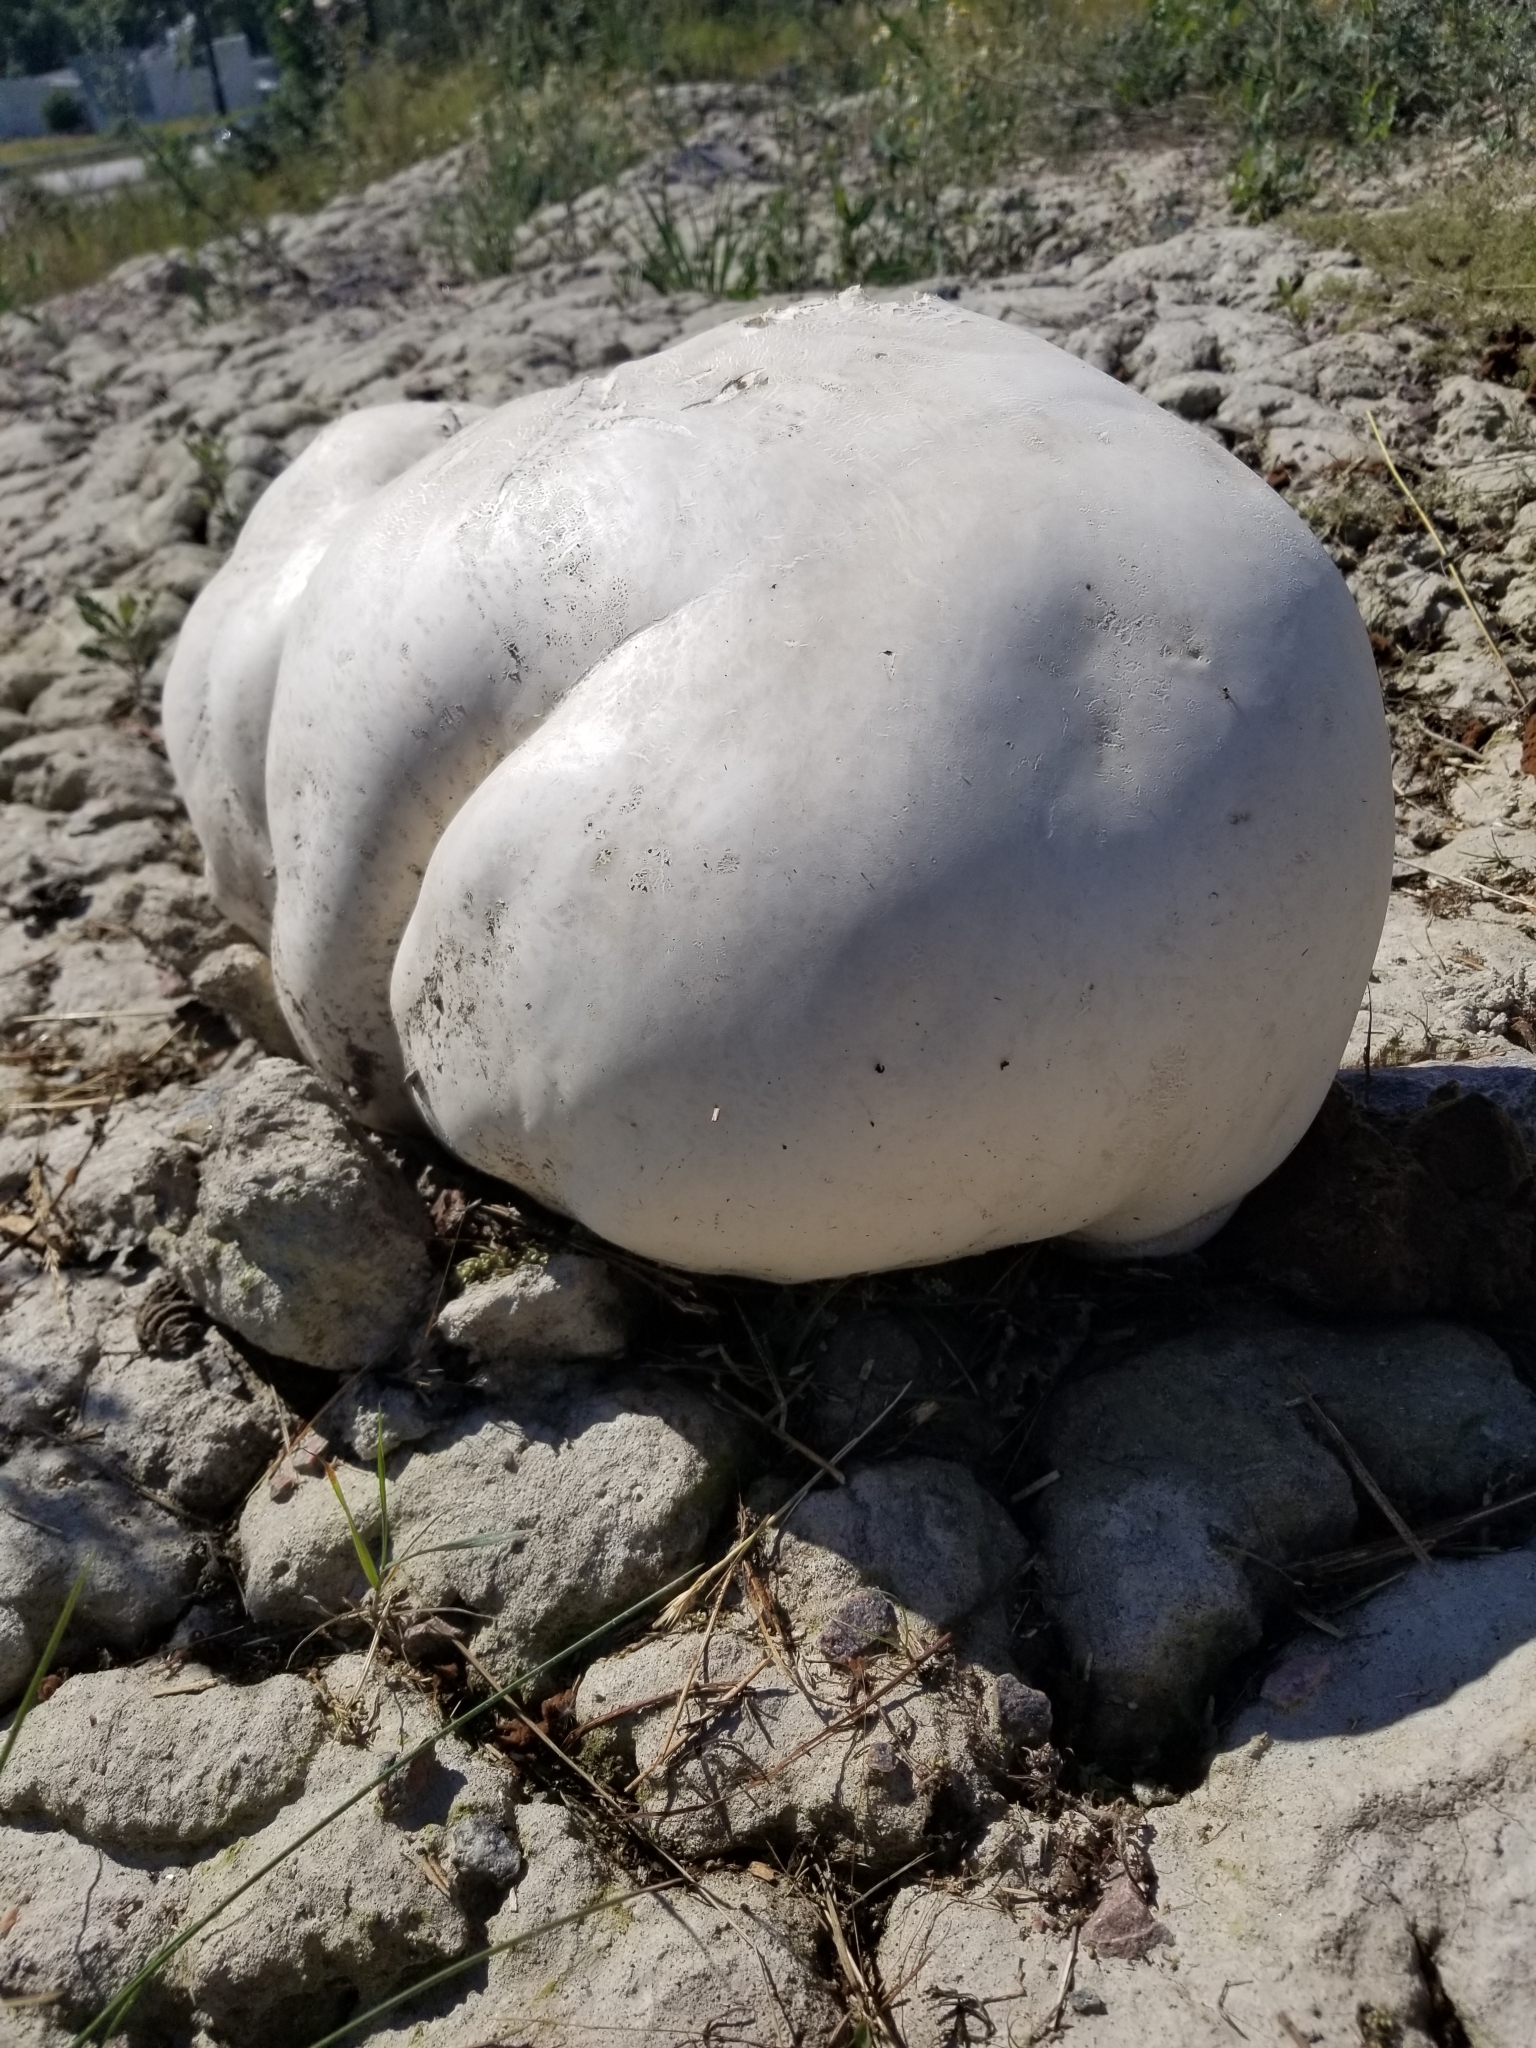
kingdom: Fungi
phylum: Basidiomycota
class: Agaricomycetes
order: Agaricales
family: Lycoperdaceae
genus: Calvatia
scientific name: Calvatia gigantea
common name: Giant puffball
